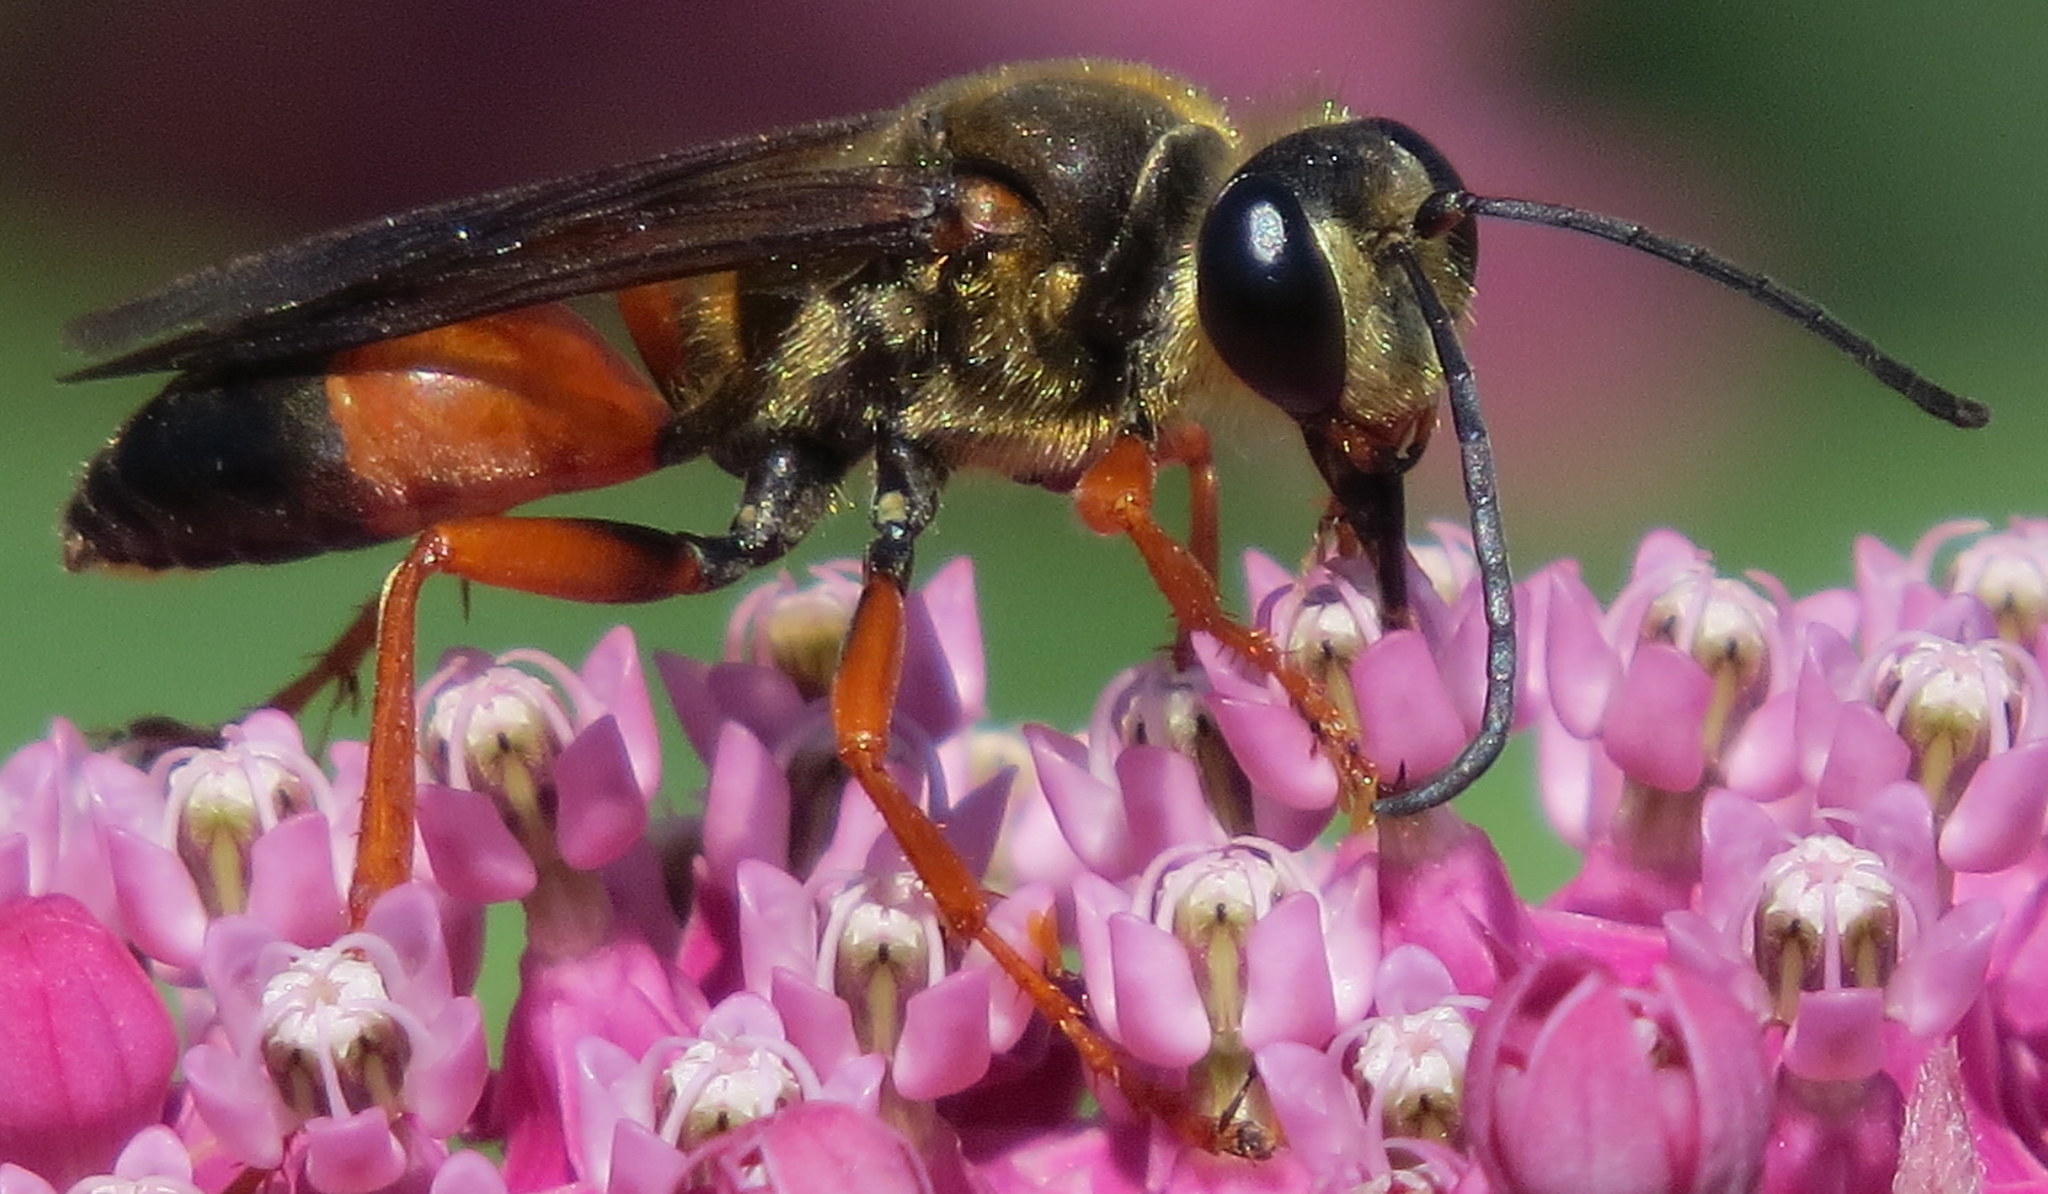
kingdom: Animalia
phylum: Arthropoda
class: Insecta
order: Hymenoptera
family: Sphecidae
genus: Sphex
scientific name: Sphex ichneumoneus
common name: Great golden digger wasp
